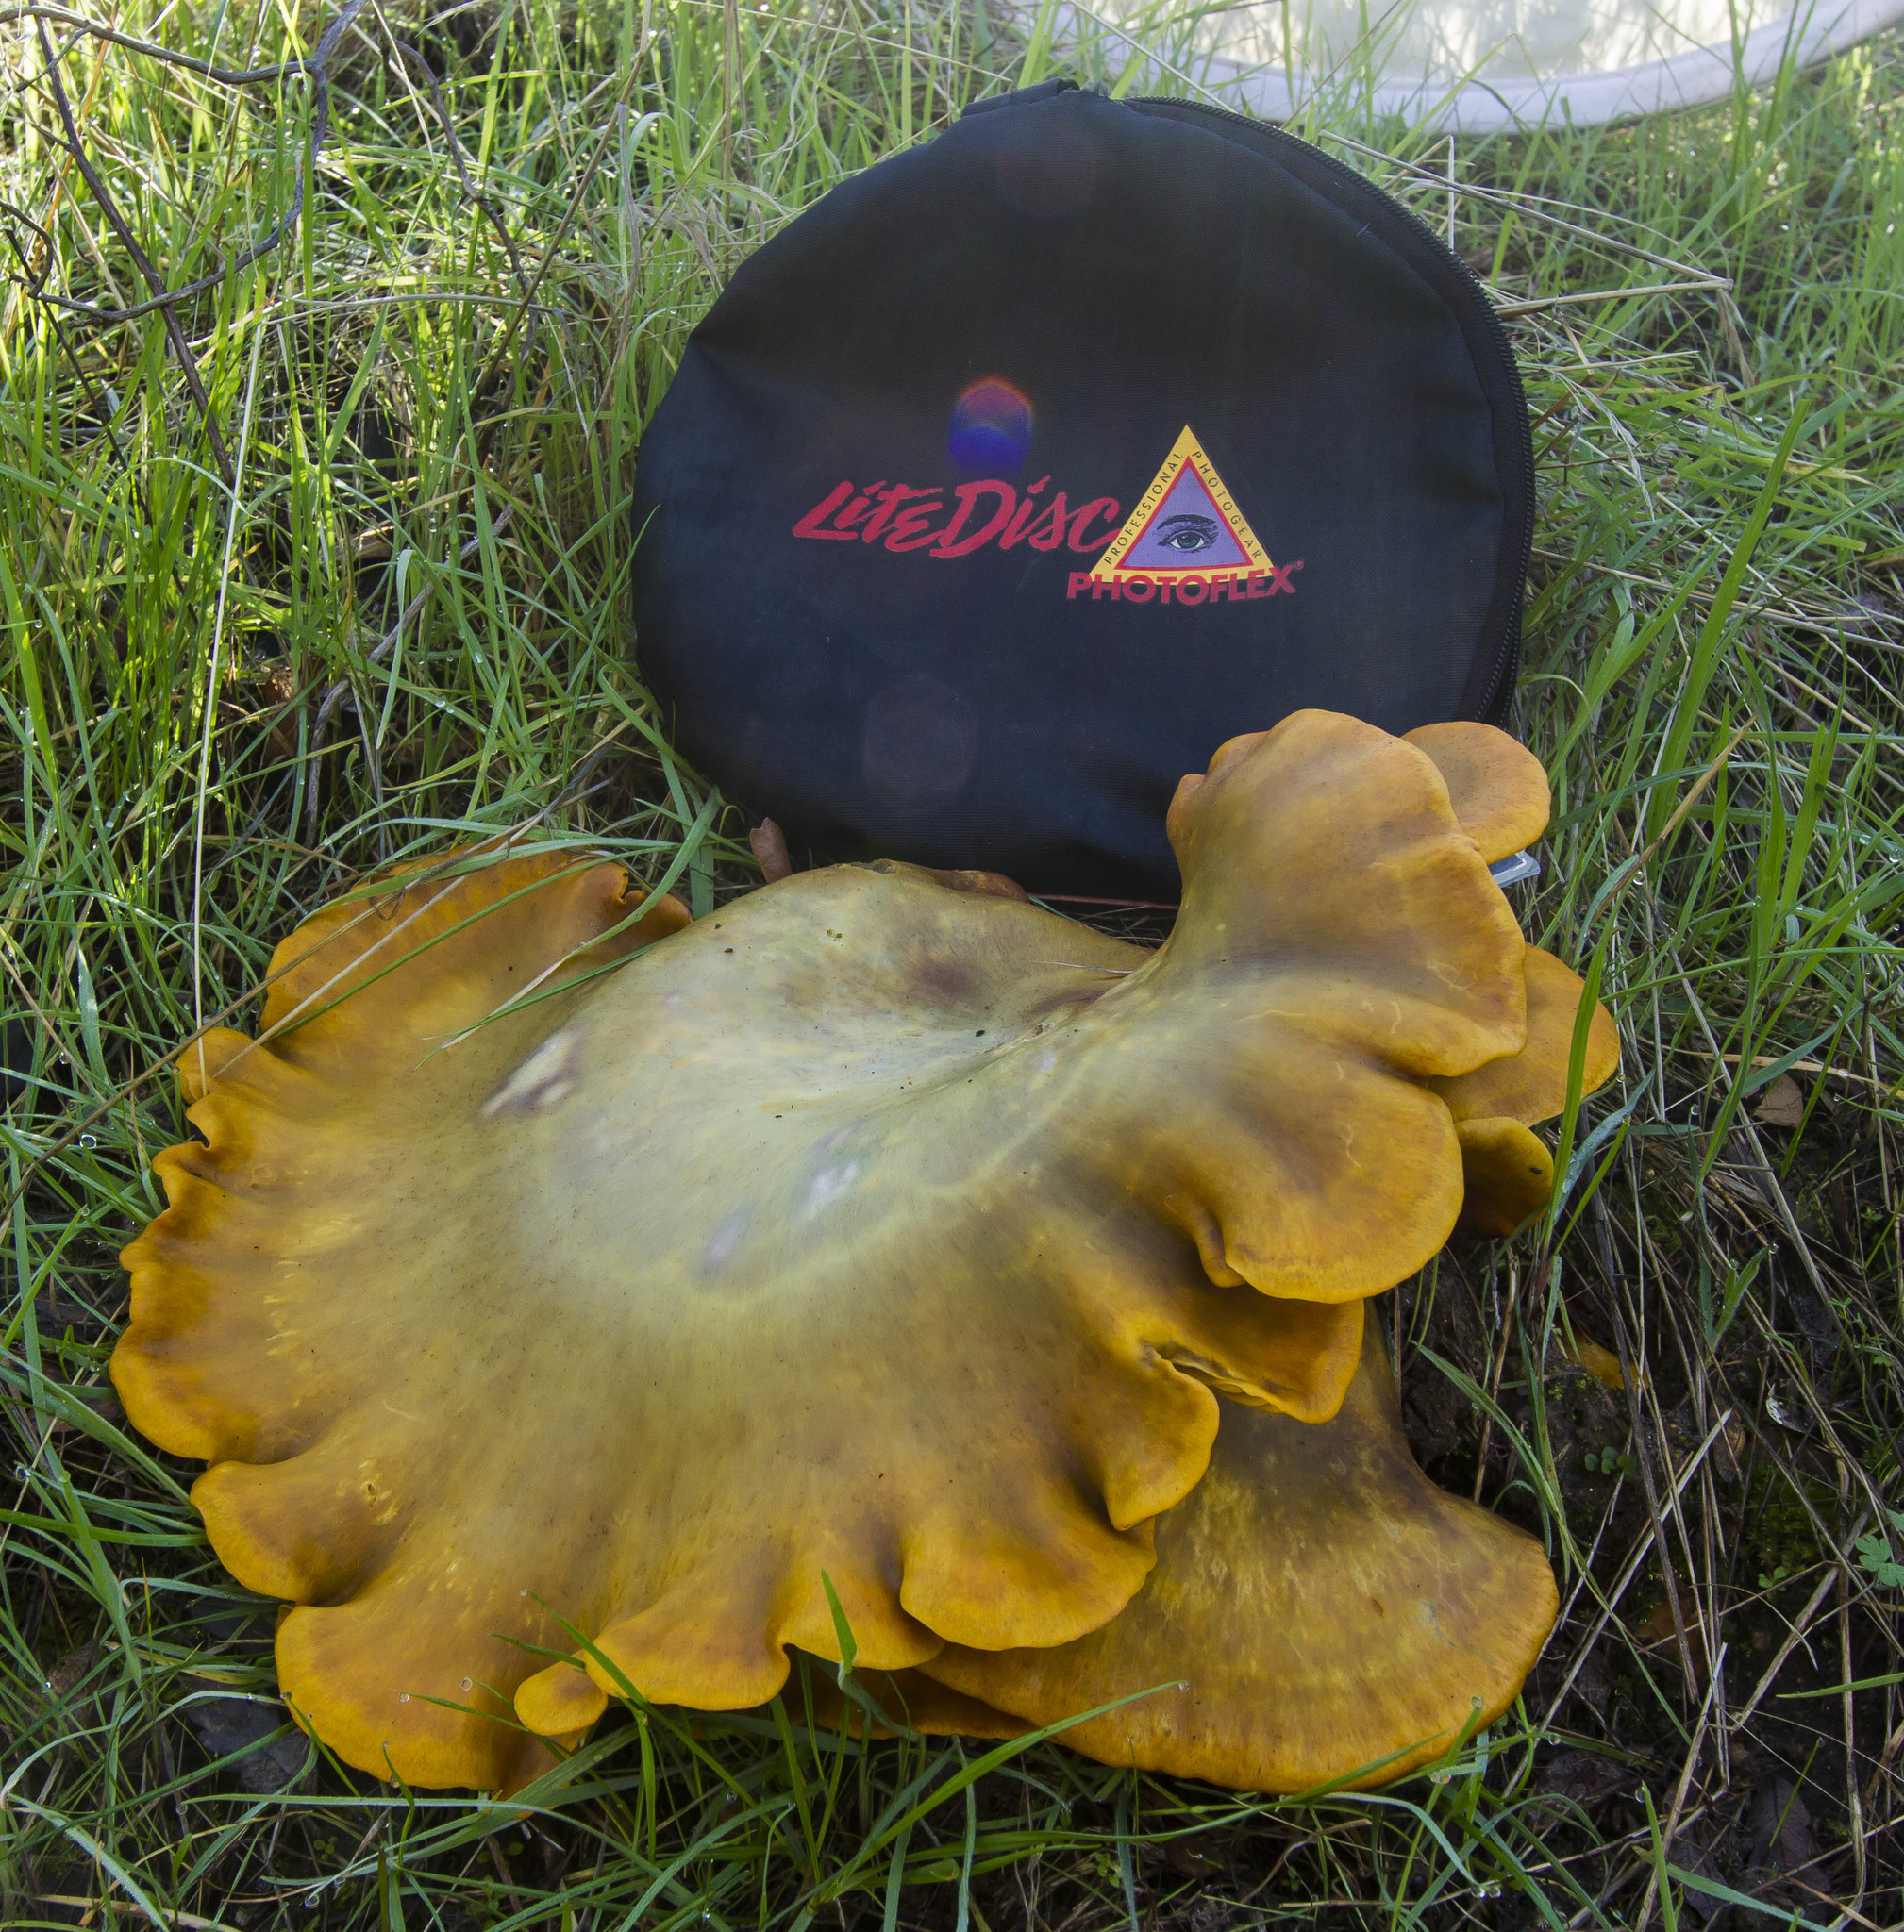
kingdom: Fungi
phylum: Basidiomycota
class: Agaricomycetes
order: Agaricales
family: Omphalotaceae
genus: Omphalotus
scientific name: Omphalotus olivascens
